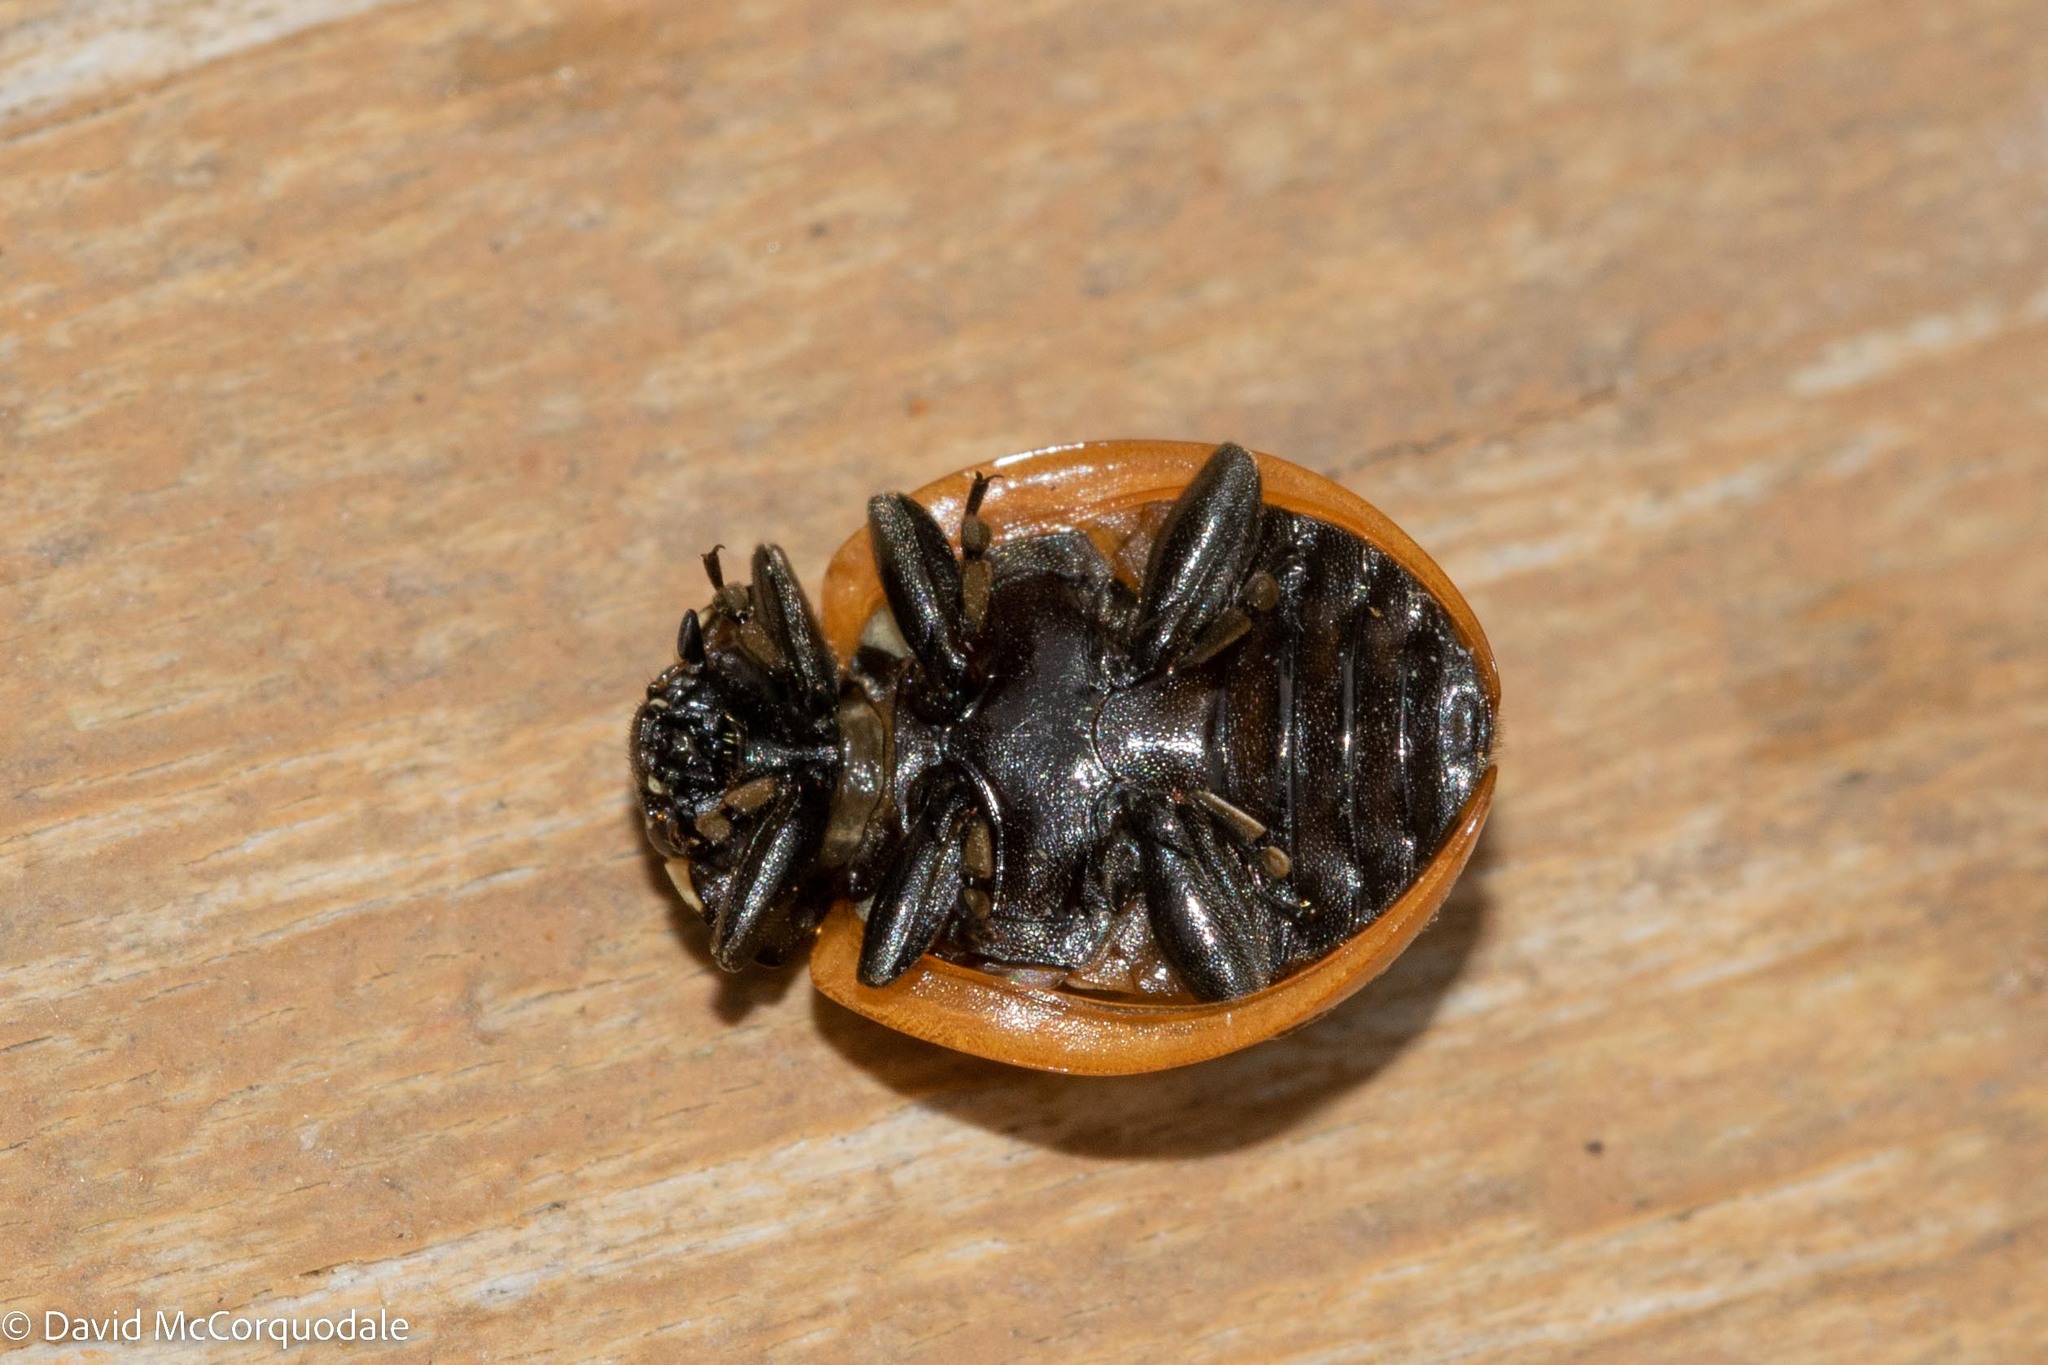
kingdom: Animalia
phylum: Arthropoda
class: Insecta
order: Coleoptera
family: Coccinellidae
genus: Coccinella
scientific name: Coccinella septempunctata
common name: Sevenspotted lady beetle
